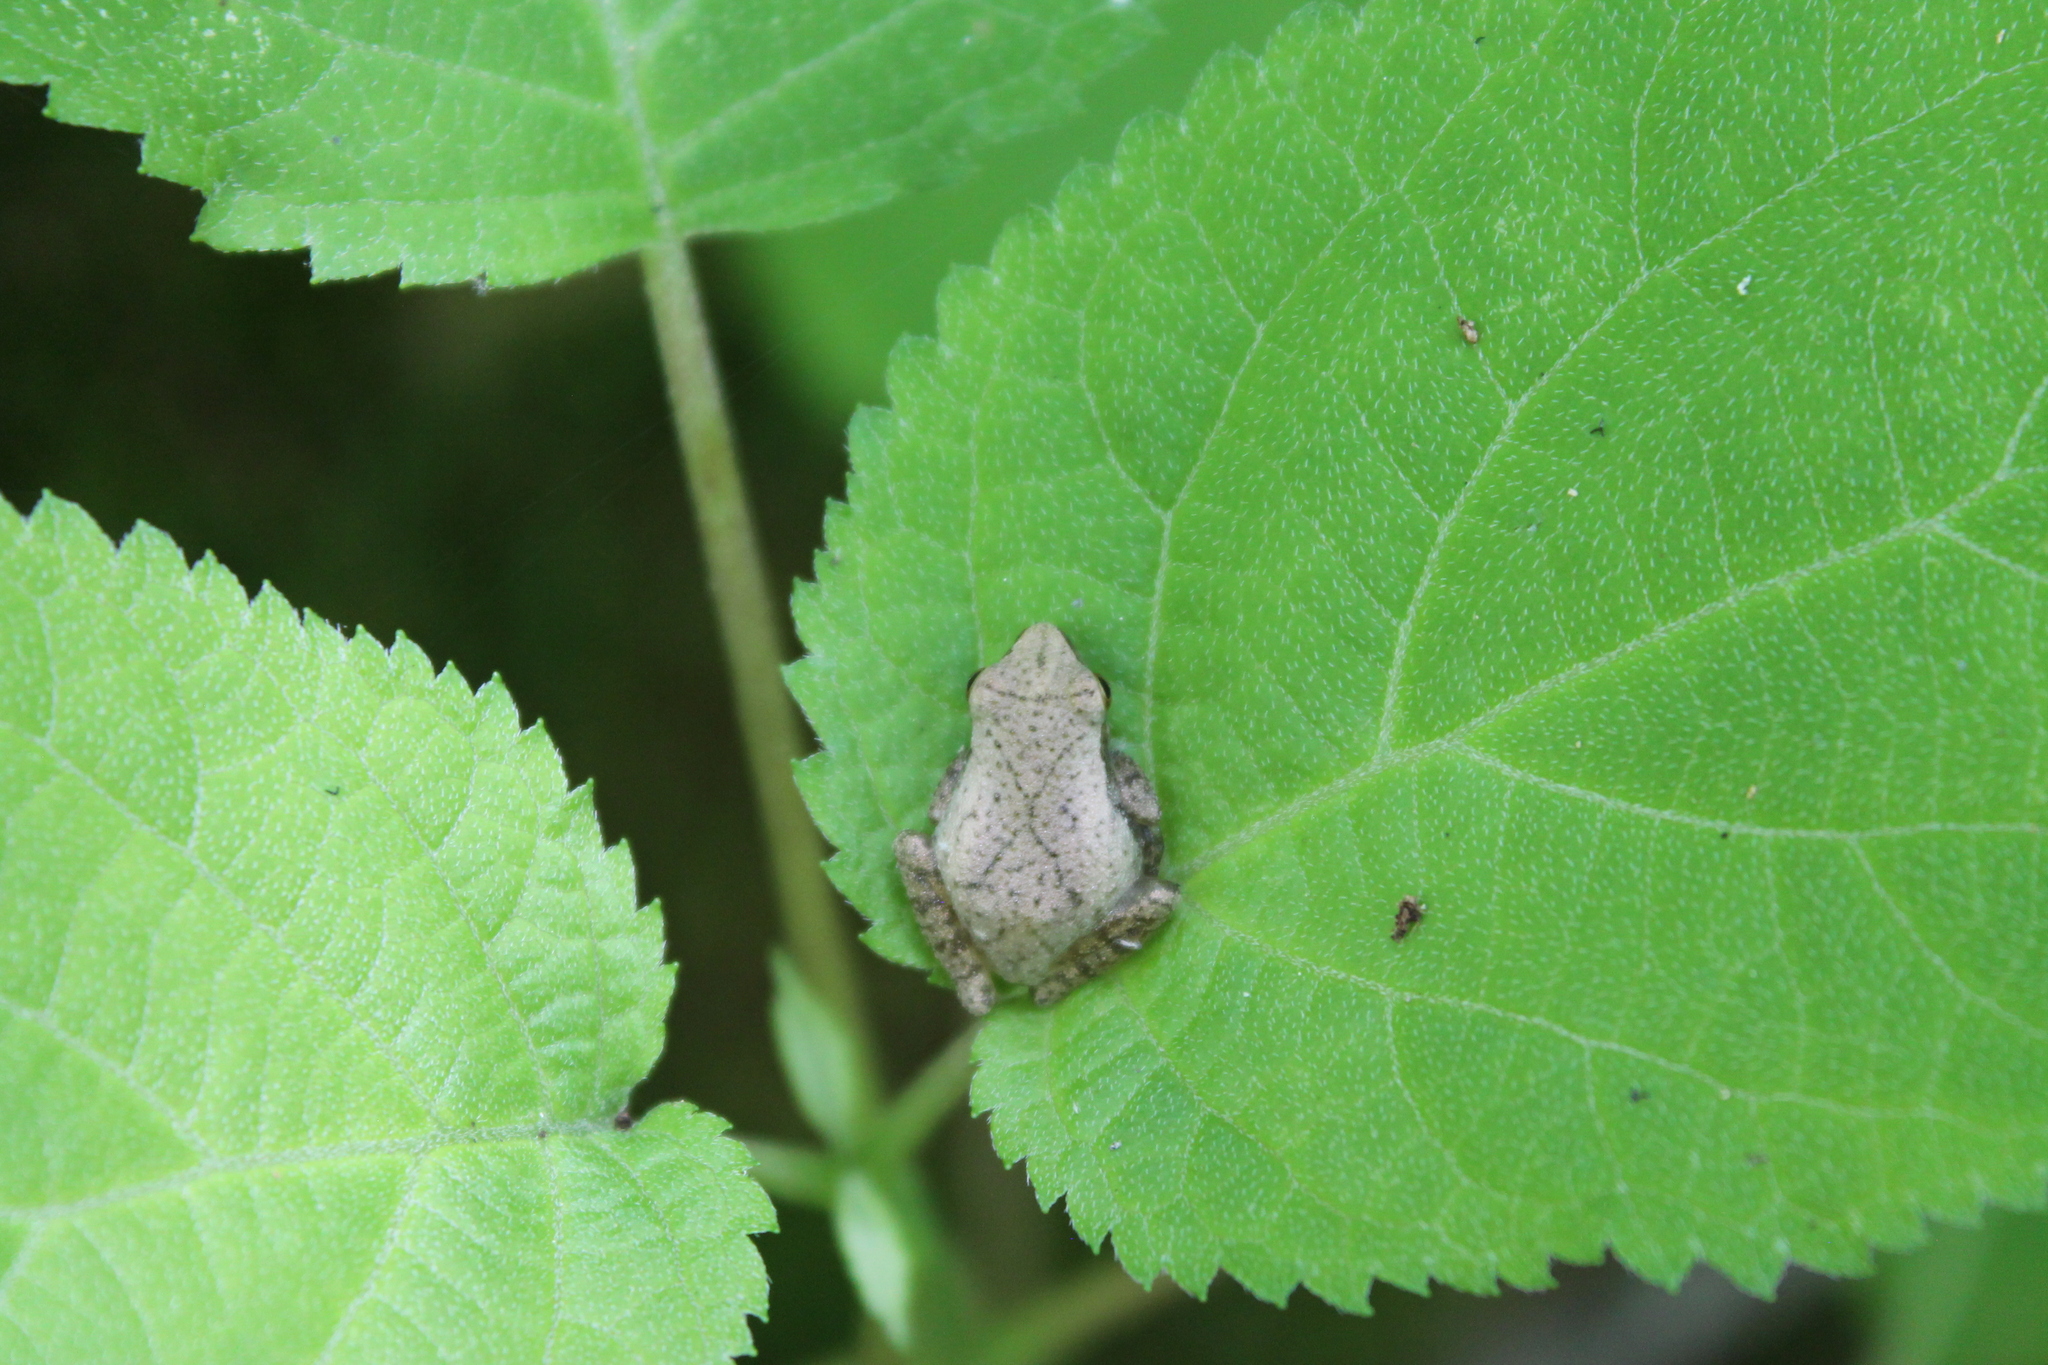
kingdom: Animalia
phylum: Chordata
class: Amphibia
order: Anura
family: Hylidae
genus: Pseudacris
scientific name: Pseudacris crucifer
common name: Spring peeper
